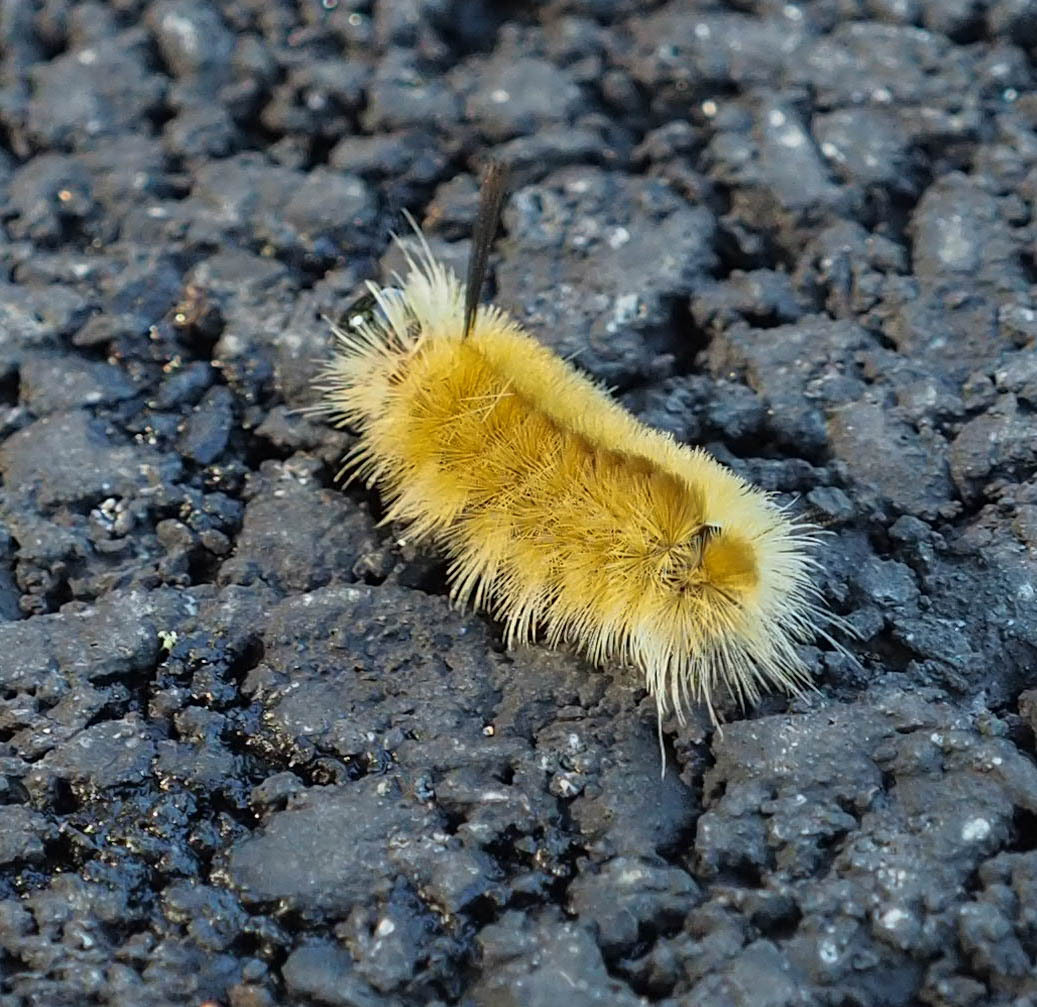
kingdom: Animalia
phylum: Arthropoda
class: Insecta
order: Lepidoptera
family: Erebidae
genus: Halysidota
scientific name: Halysidota tessellaris
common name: Banded tussock moth
